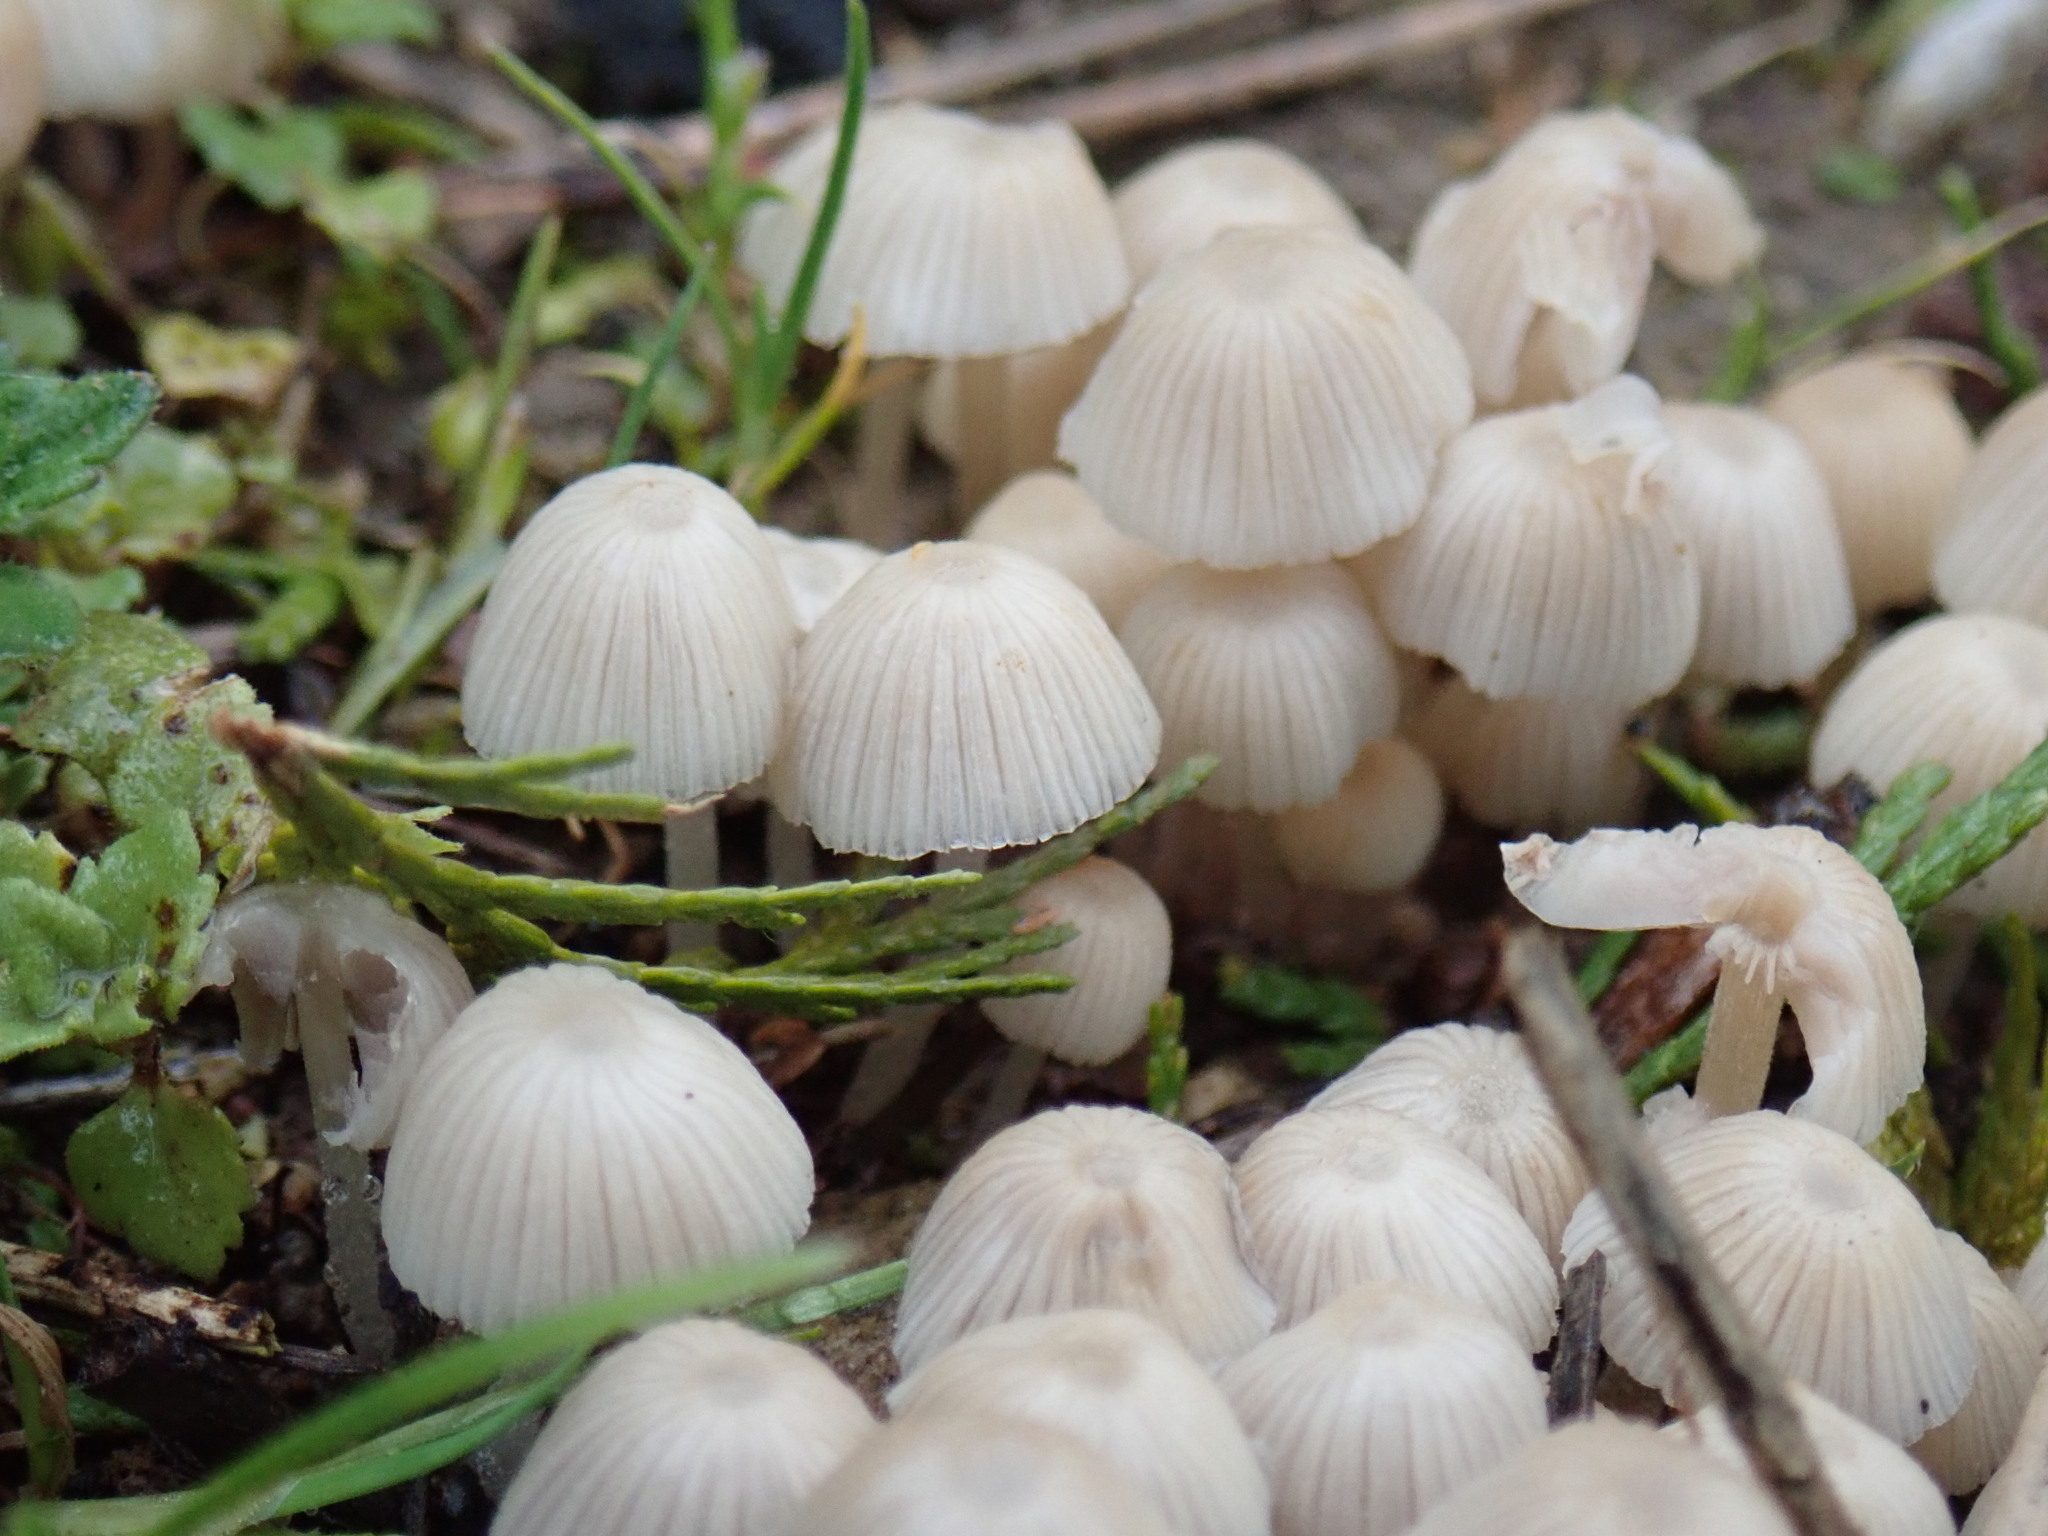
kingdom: Fungi
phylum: Basidiomycota
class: Agaricomycetes
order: Agaricales
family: Psathyrellaceae
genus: Coprinellus
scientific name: Coprinellus disseminatus
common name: Fairies' bonnets
